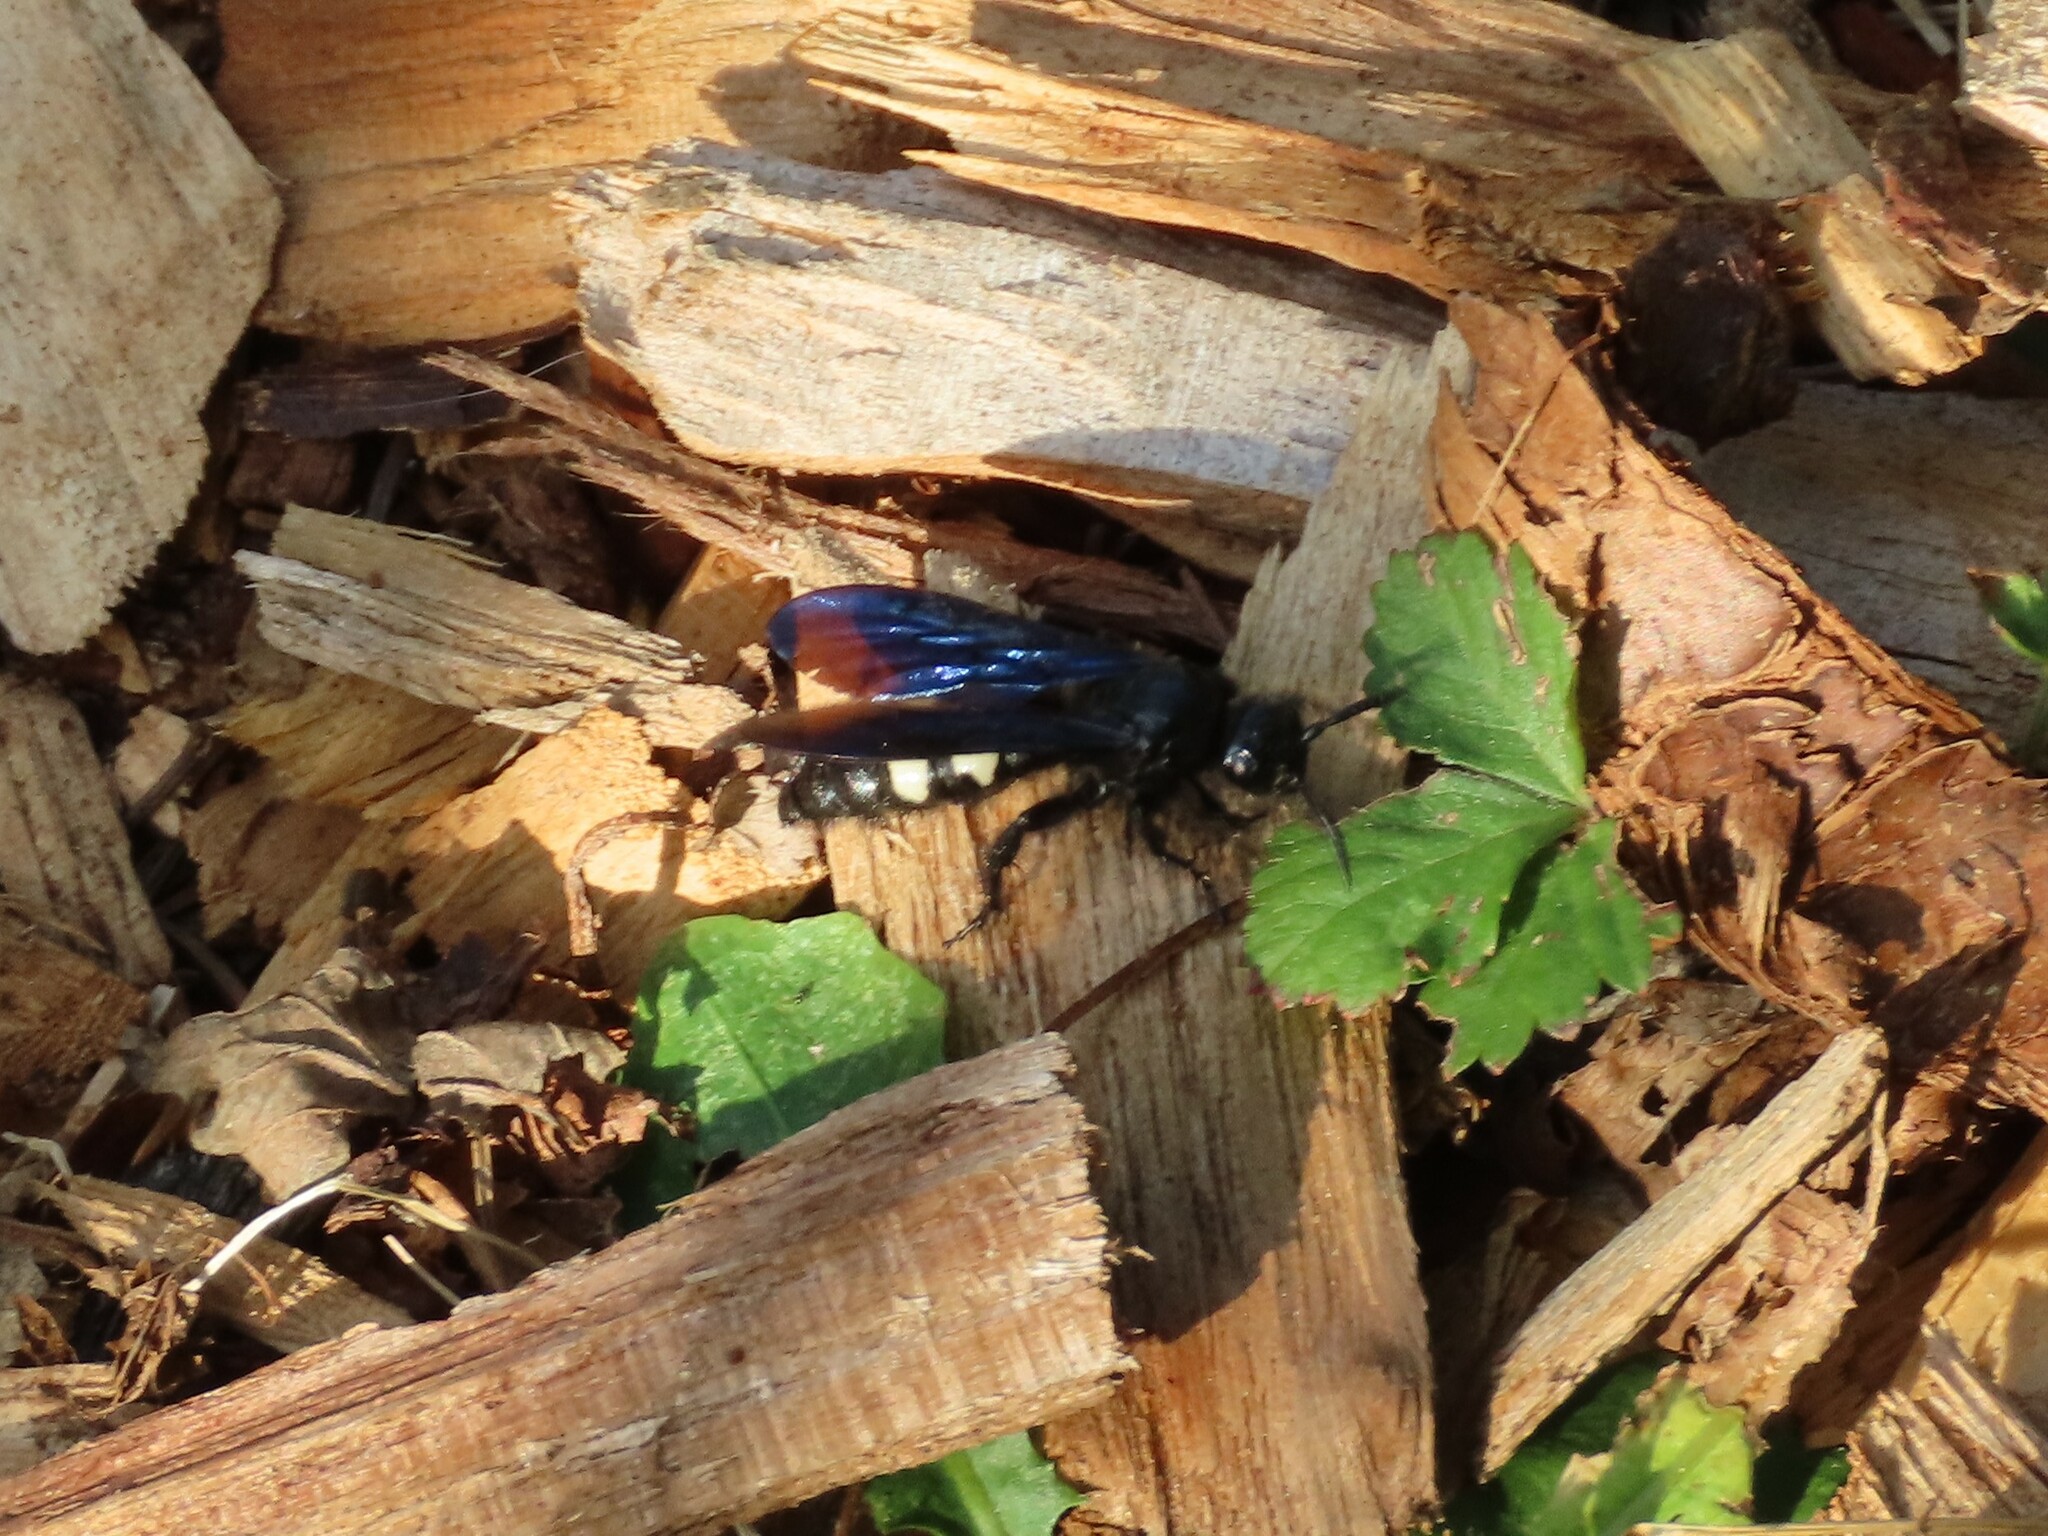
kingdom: Animalia
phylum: Arthropoda
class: Insecta
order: Hymenoptera
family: Scoliidae
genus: Scolia
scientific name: Scolia bicincta
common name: Double-banded scoliid wasp
